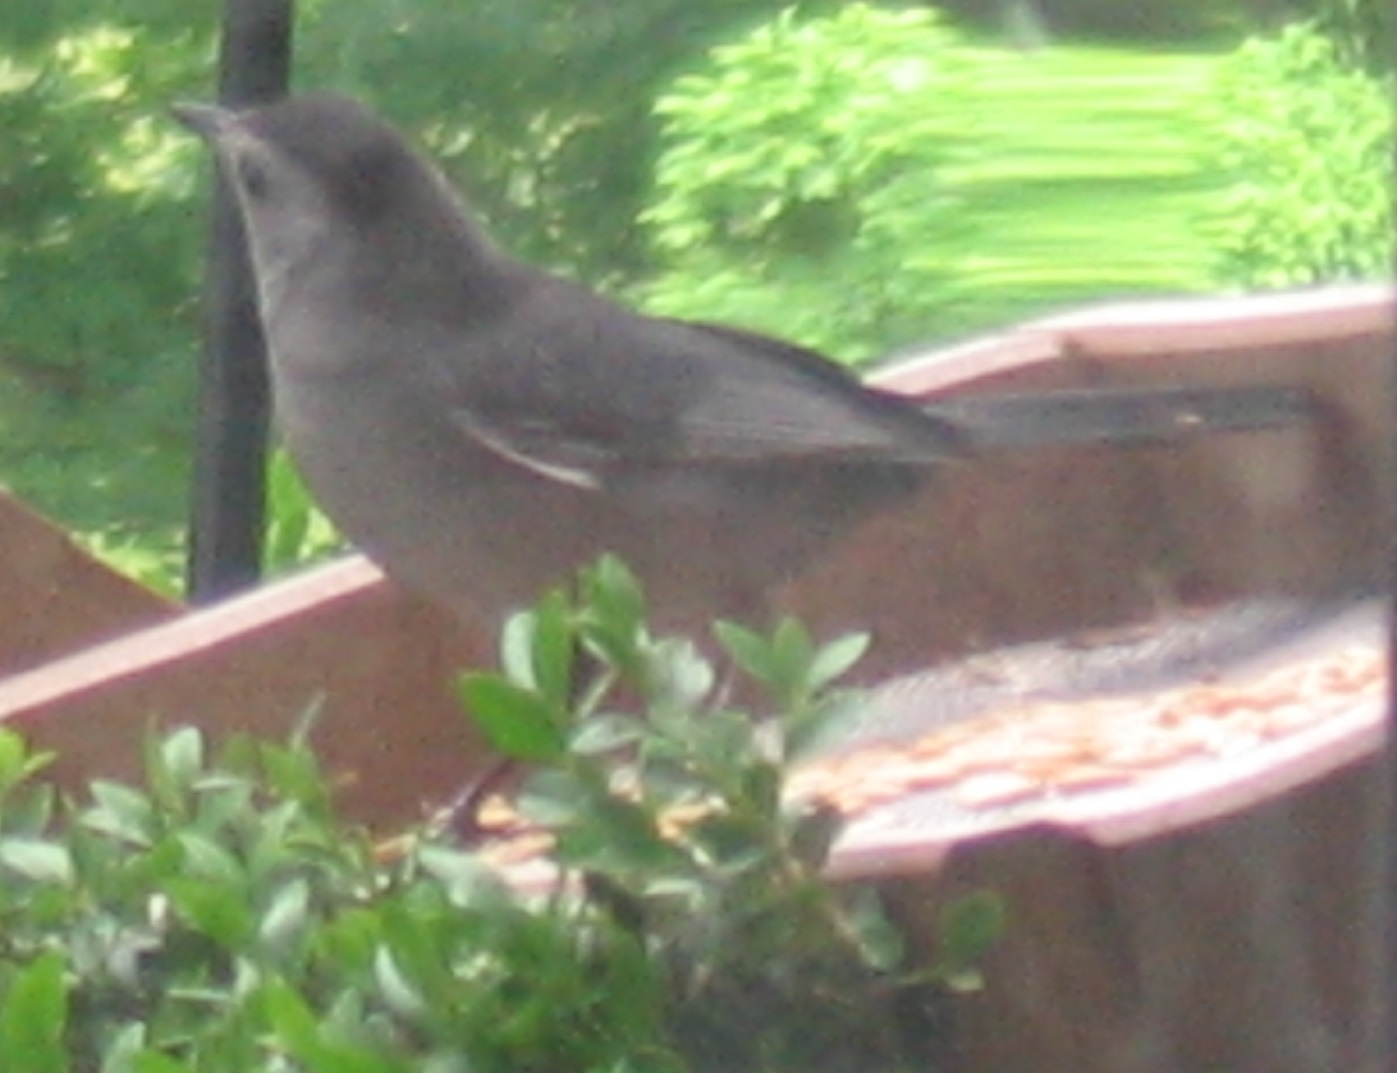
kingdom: Animalia
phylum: Chordata
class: Aves
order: Passeriformes
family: Mimidae
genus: Dumetella
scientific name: Dumetella carolinensis
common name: Gray catbird
